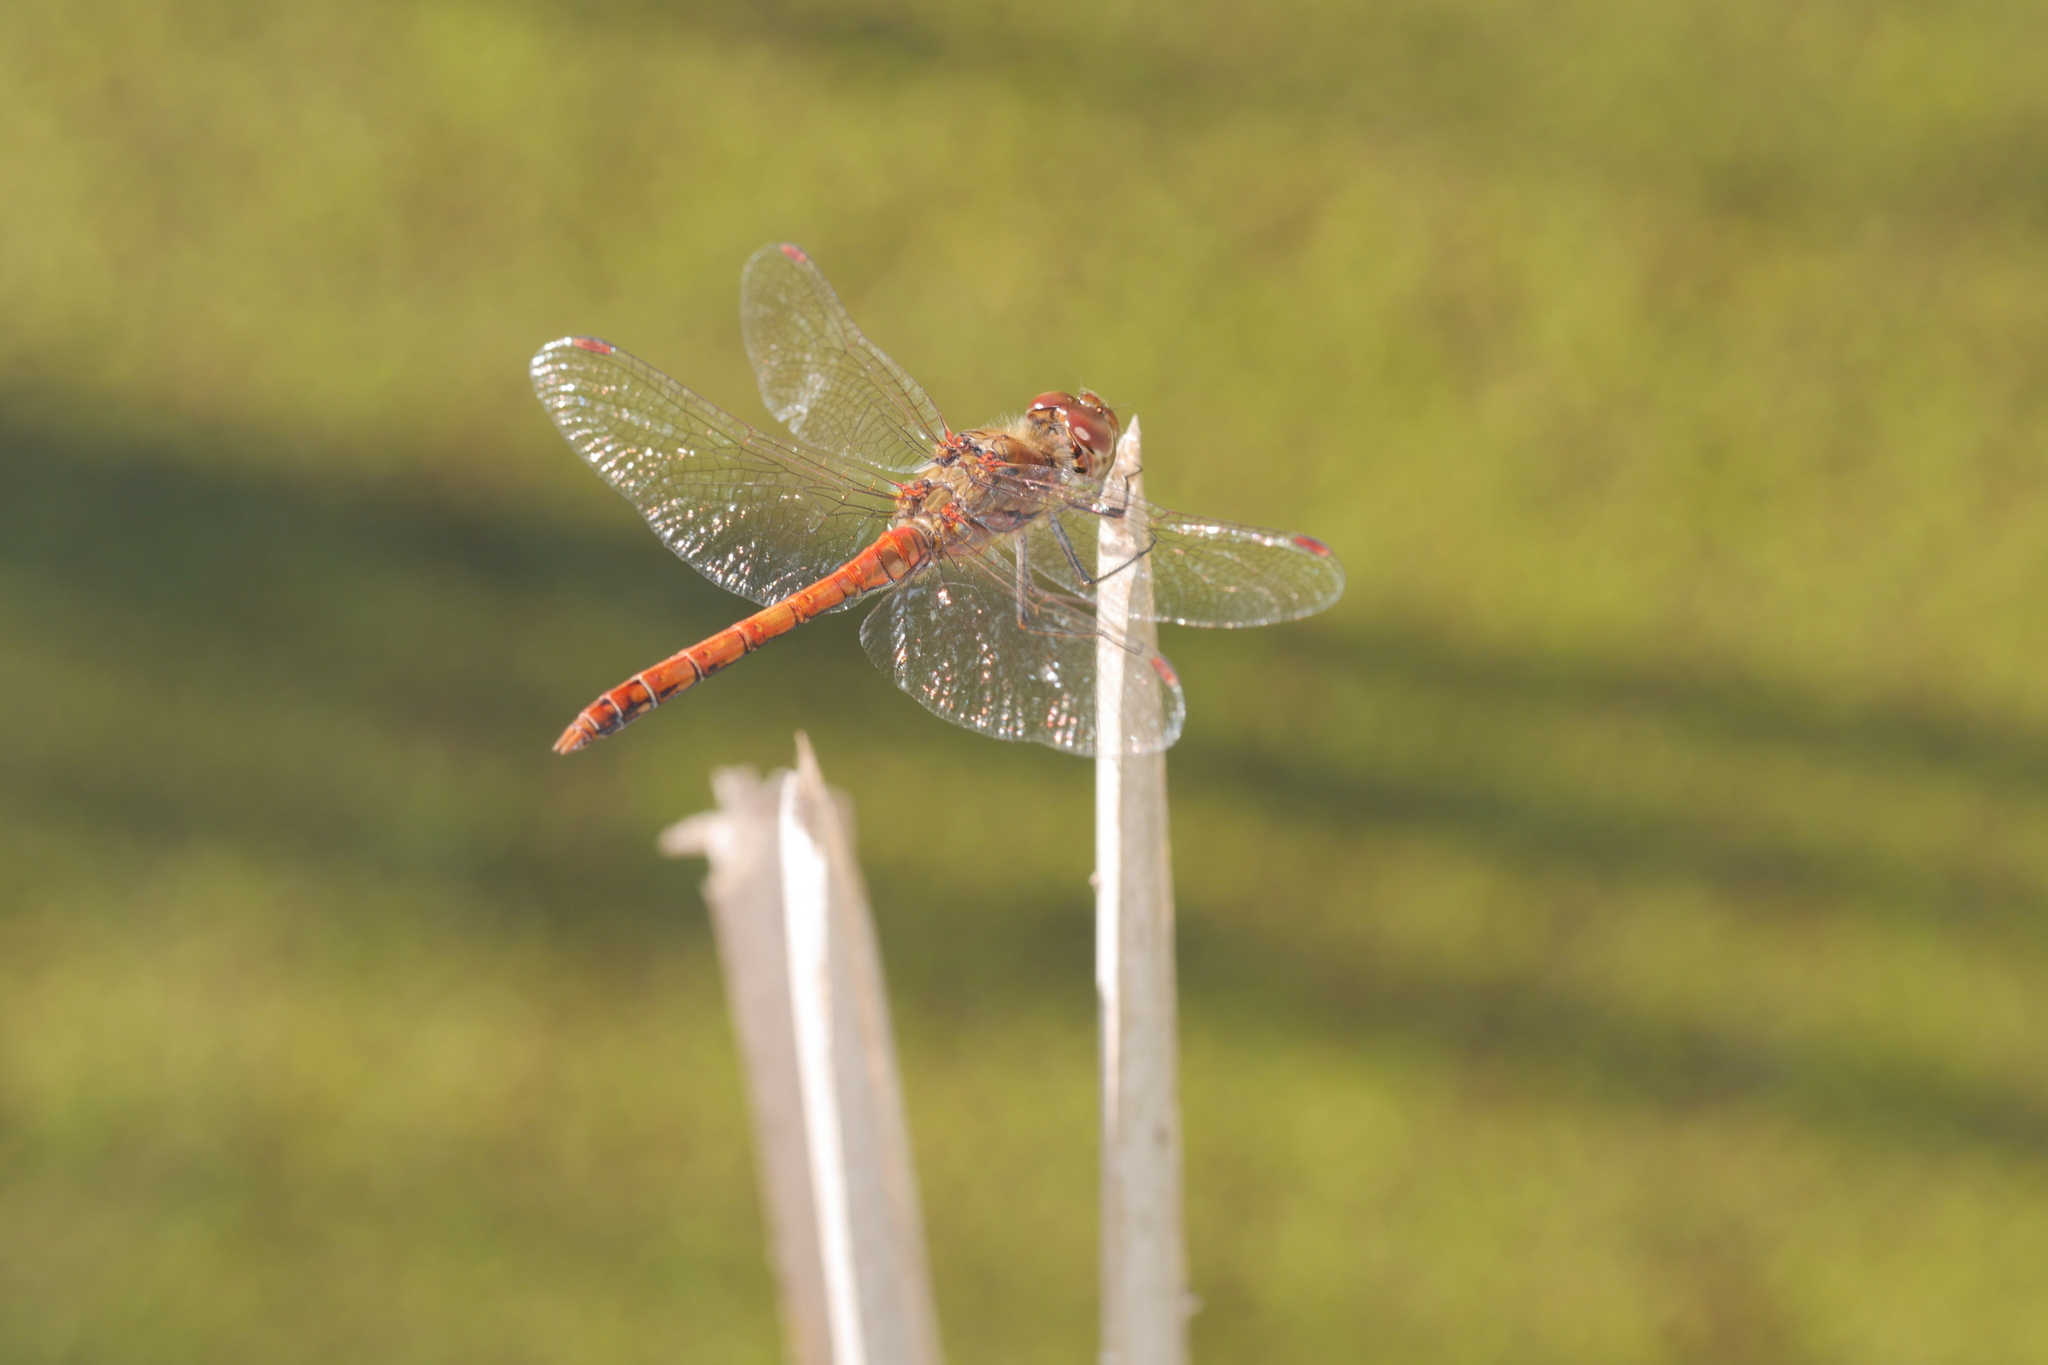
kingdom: Animalia
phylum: Arthropoda
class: Insecta
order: Odonata
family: Libellulidae
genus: Sympetrum
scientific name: Sympetrum striolatum
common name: Common darter
